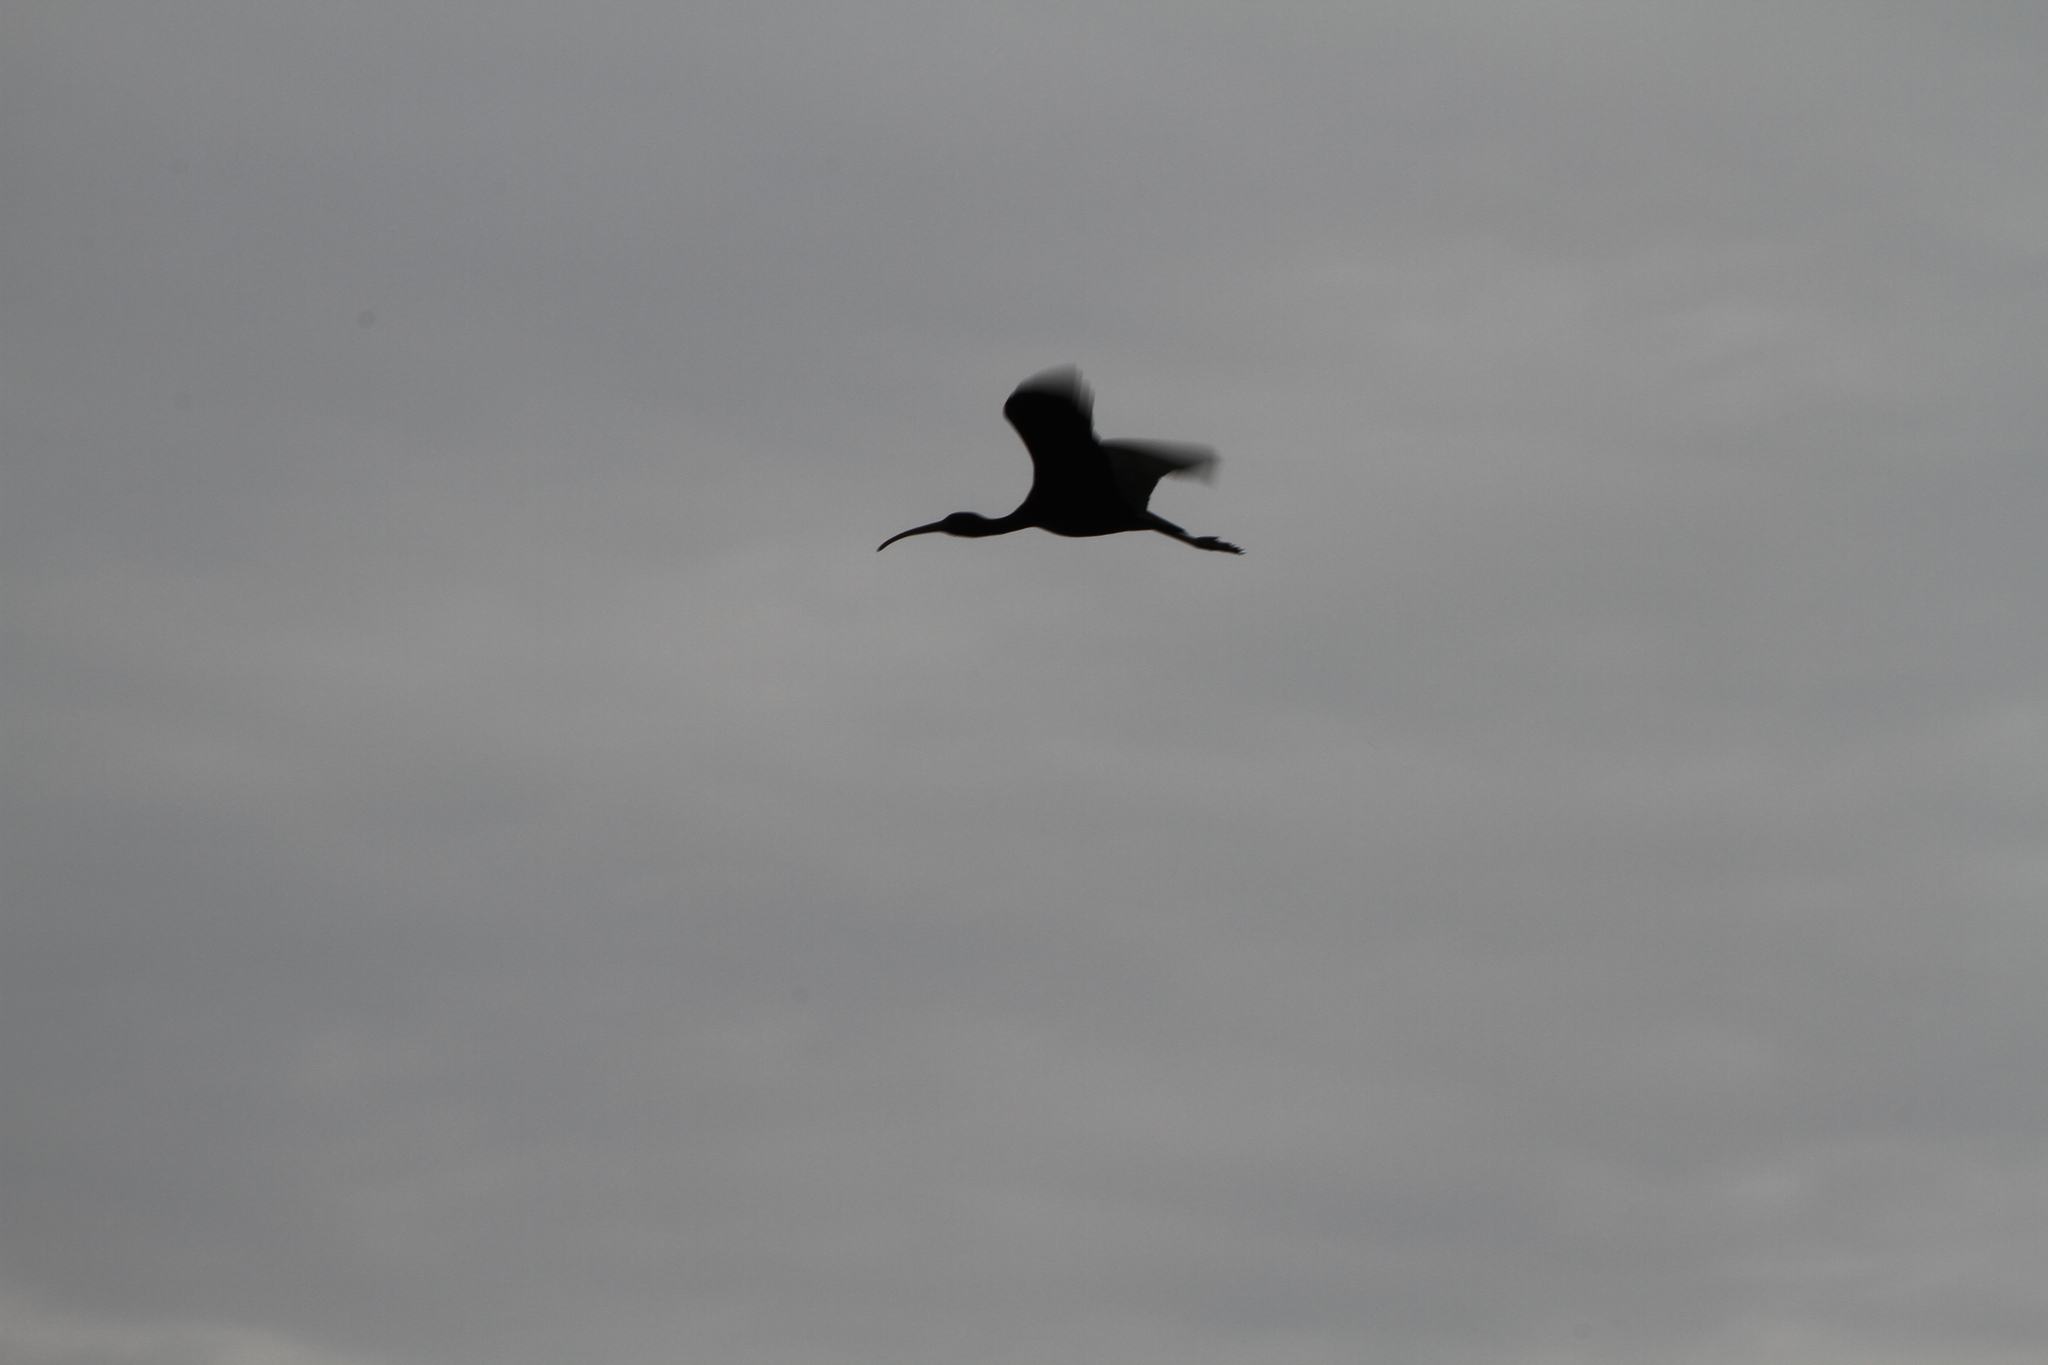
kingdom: Animalia
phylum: Chordata
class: Aves
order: Pelecaniformes
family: Threskiornithidae
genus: Plegadis
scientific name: Plegadis falcinellus
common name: Glossy ibis
